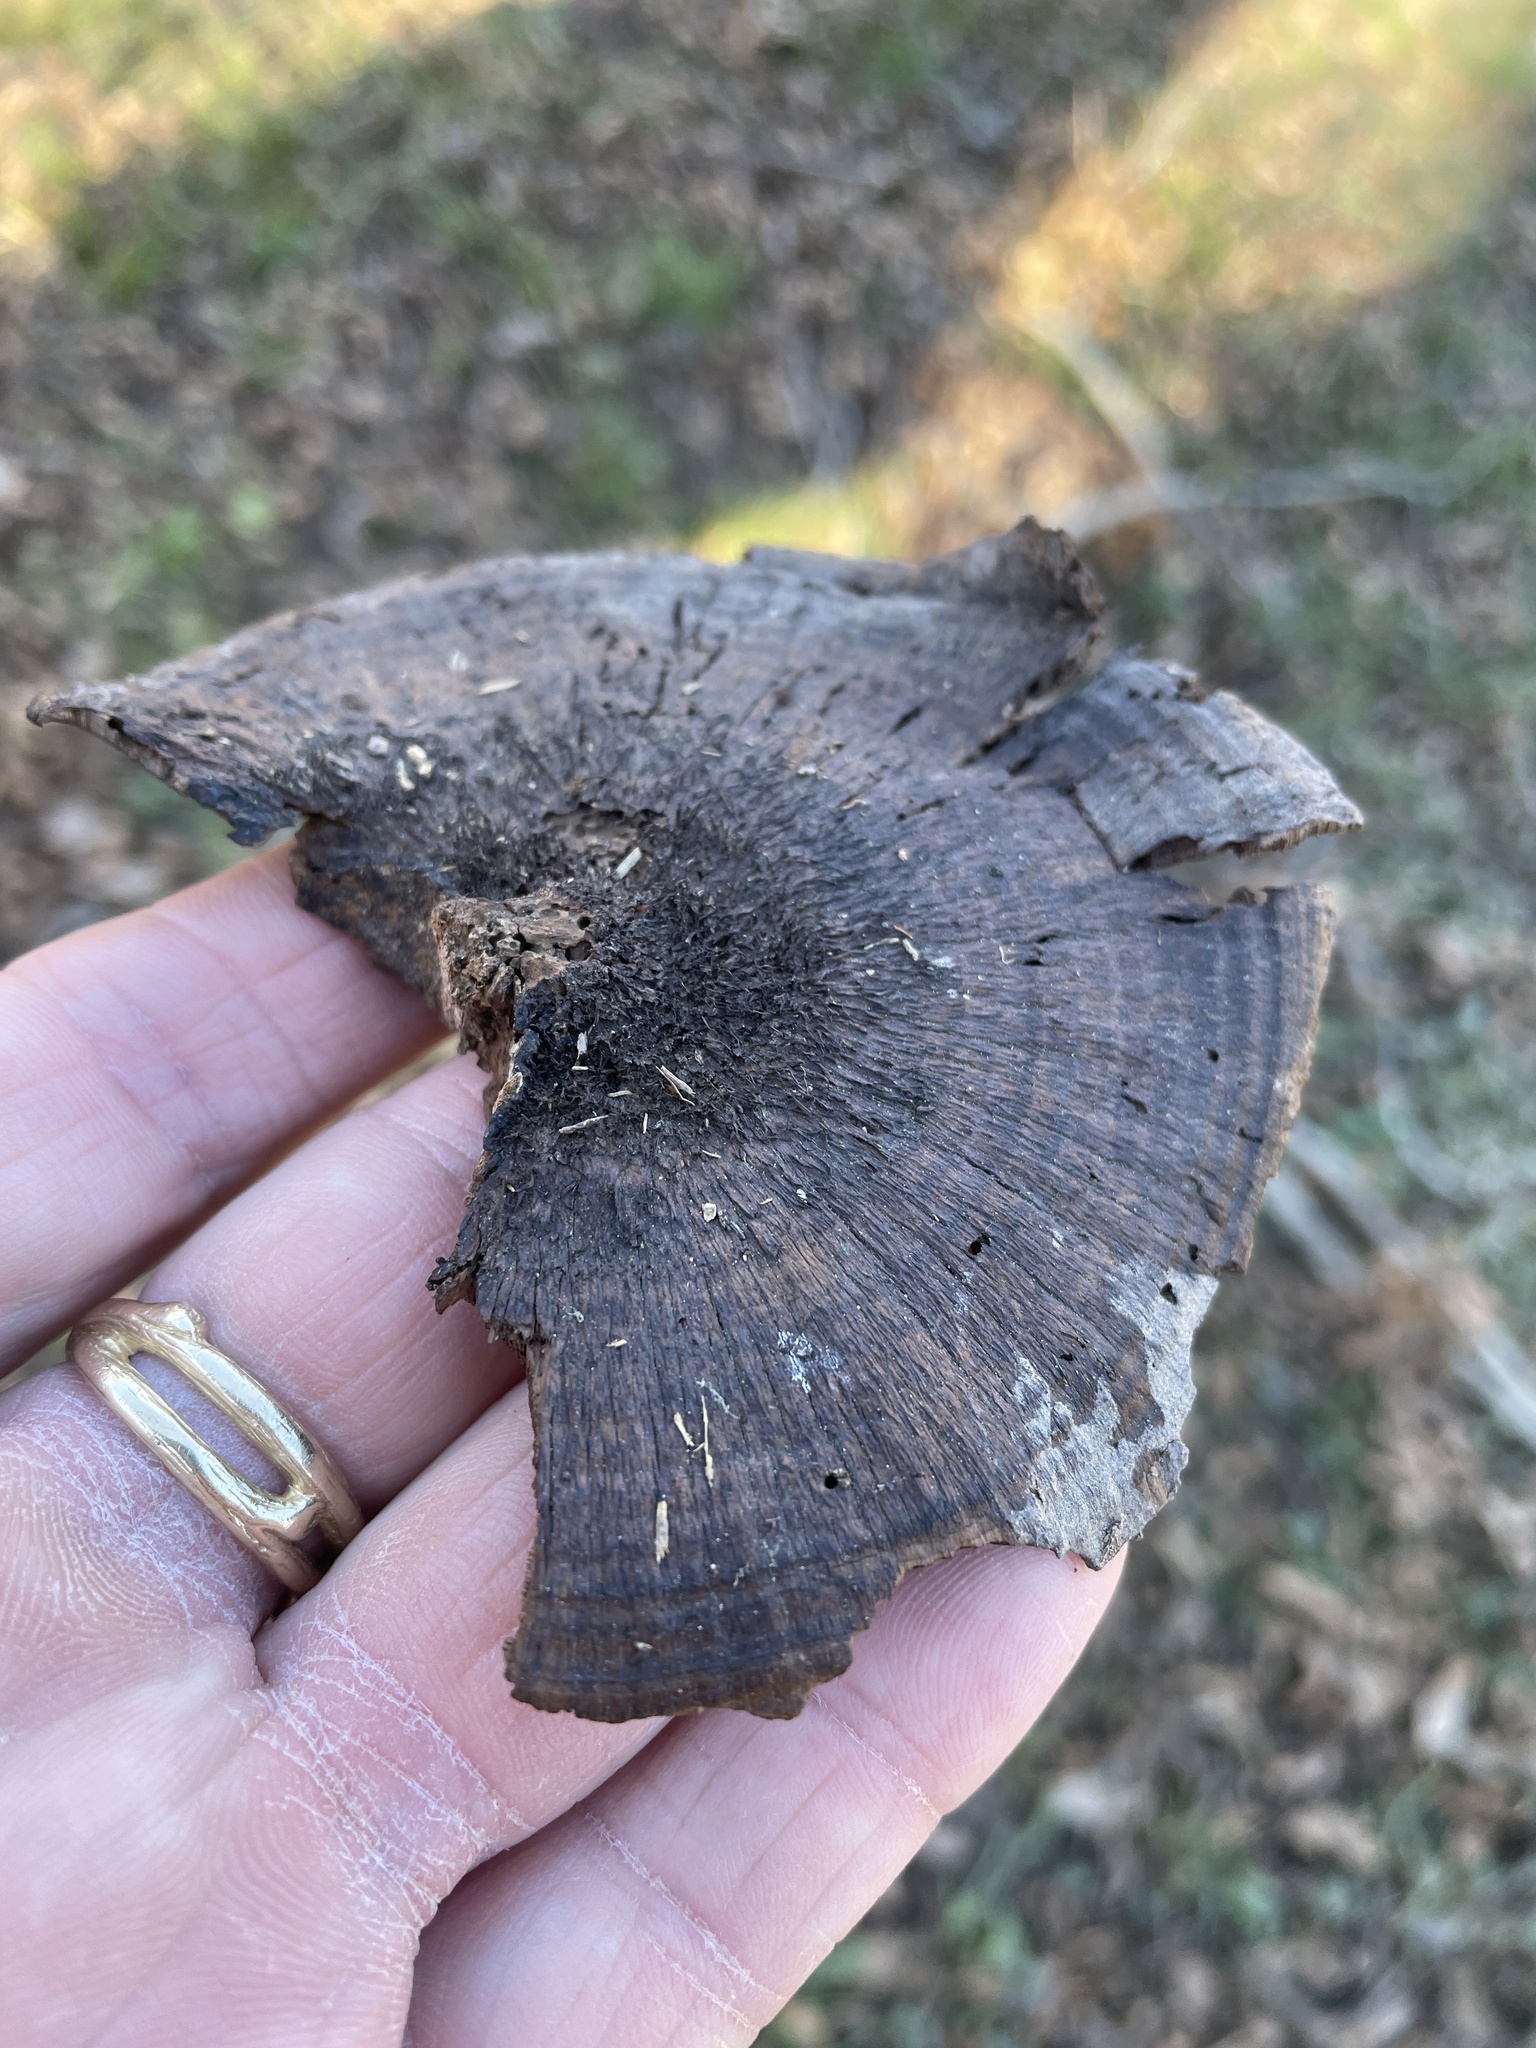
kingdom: Fungi
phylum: Basidiomycota
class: Agaricomycetes
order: Polyporales
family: Cerrenaceae
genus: Cerrena
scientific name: Cerrena hydnoides
